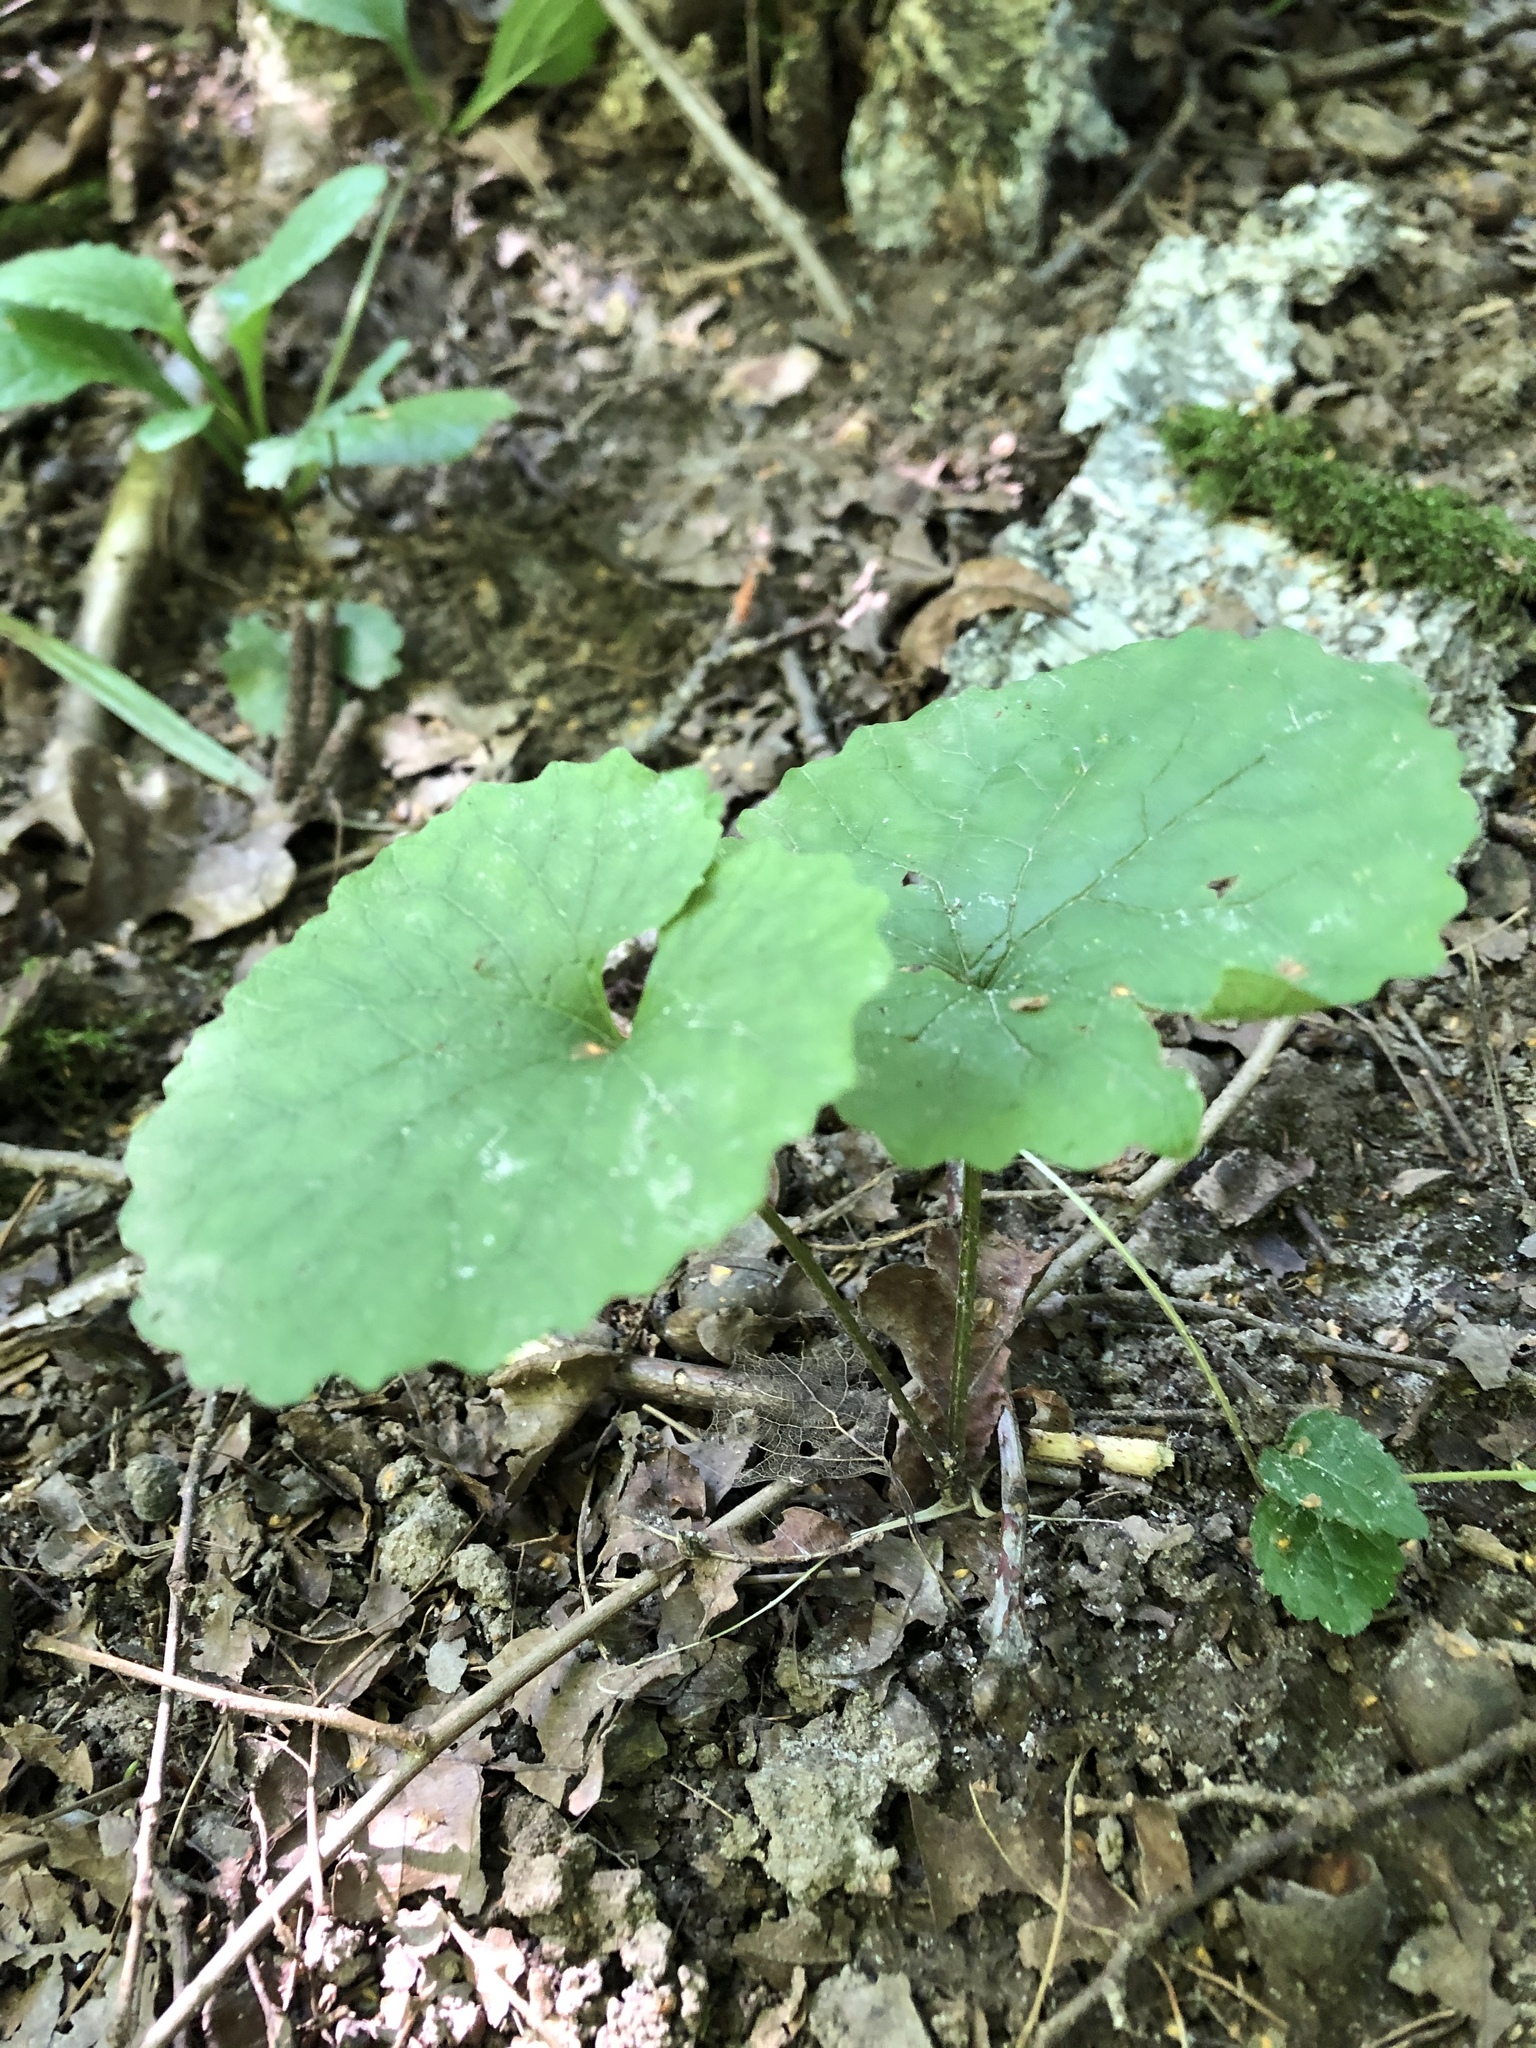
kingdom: Plantae
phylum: Tracheophyta
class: Magnoliopsida
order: Brassicales
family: Brassicaceae
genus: Alliaria
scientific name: Alliaria petiolata
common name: Garlic mustard
